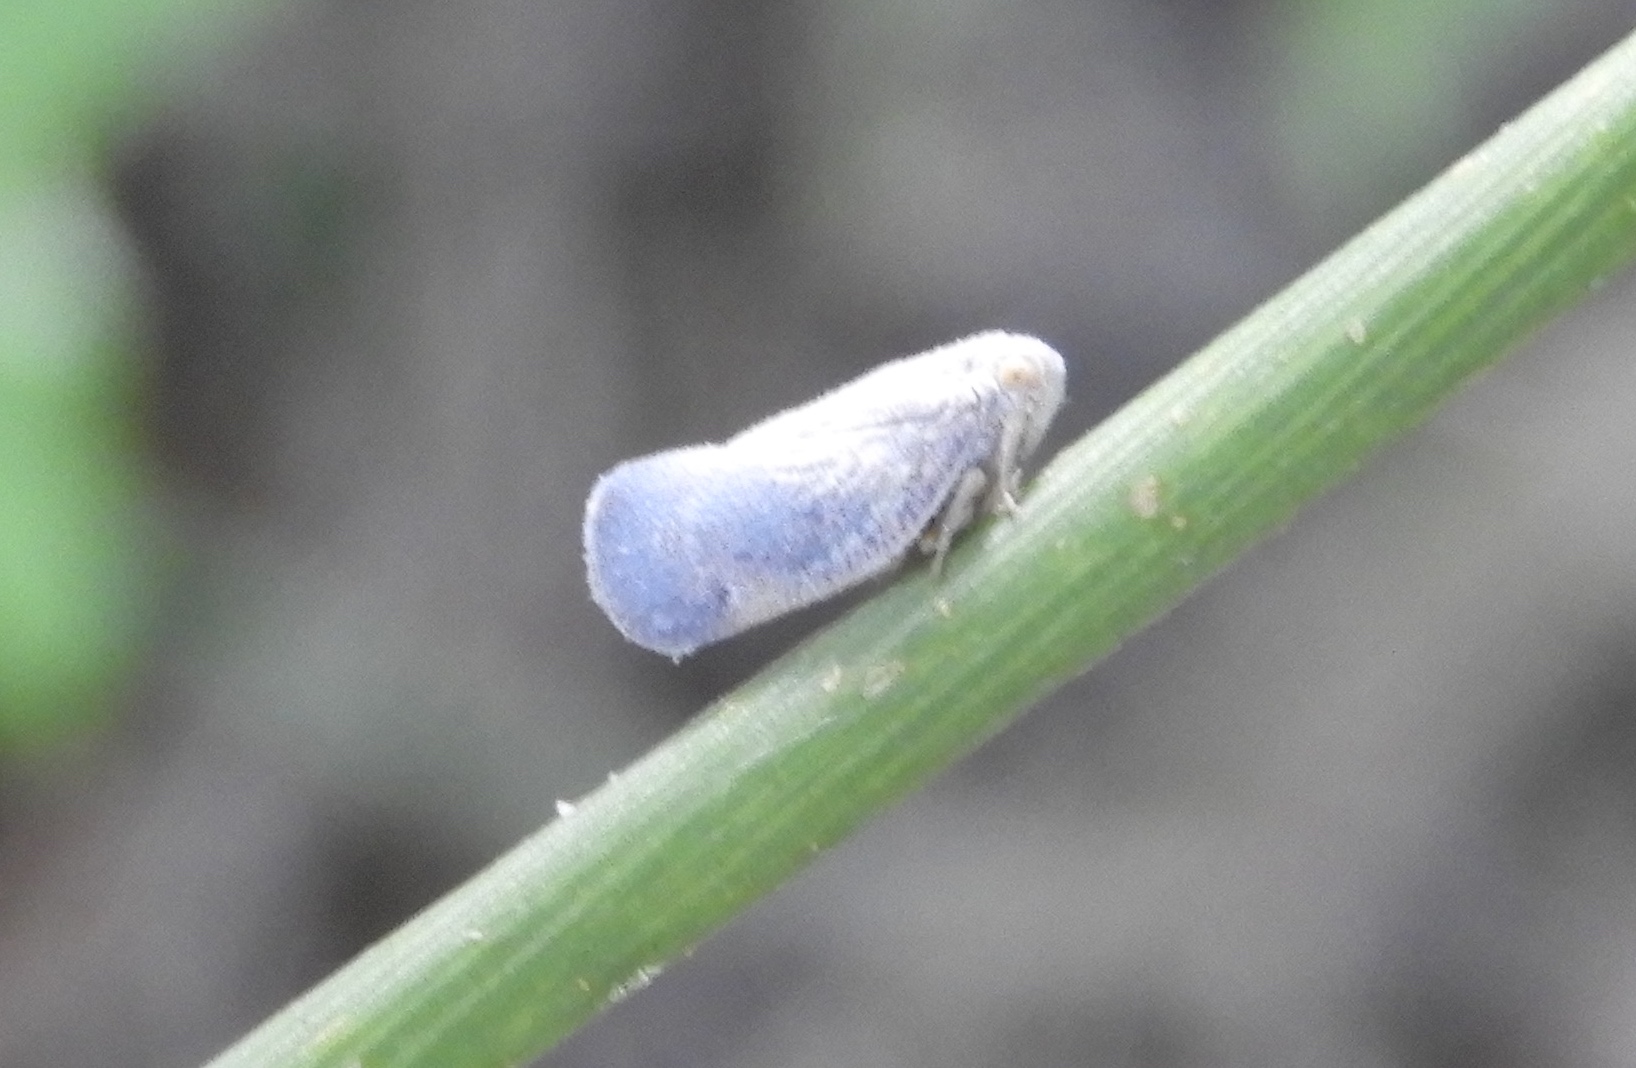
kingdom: Animalia
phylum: Arthropoda
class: Insecta
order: Hemiptera
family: Flatidae
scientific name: Flatidae
